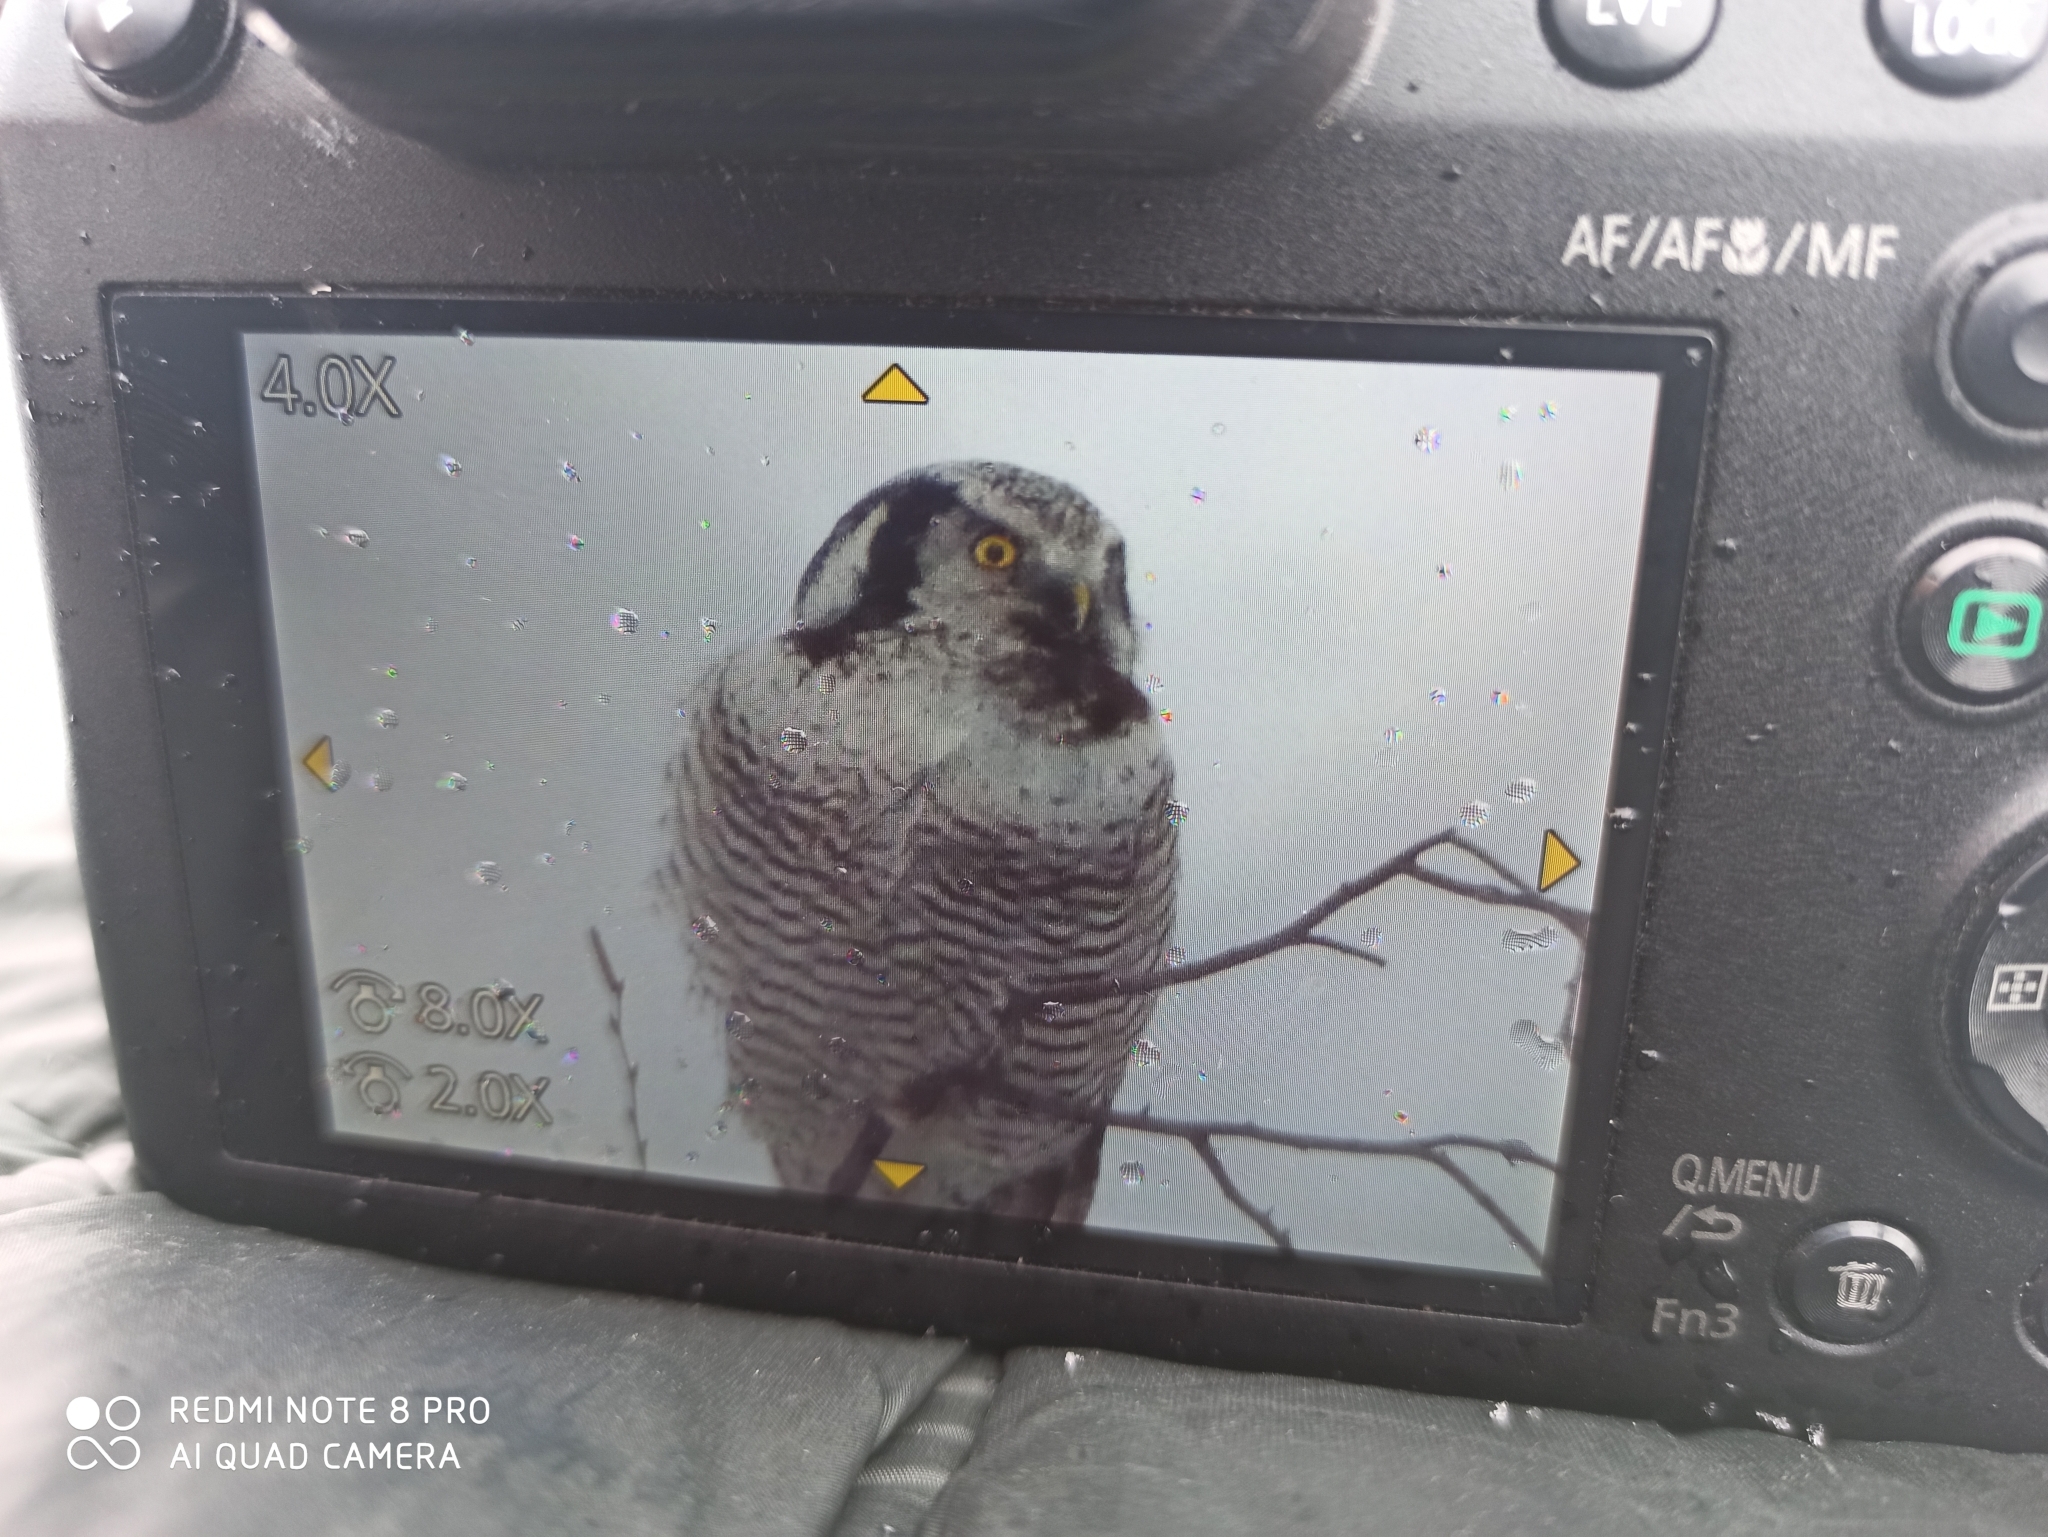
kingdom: Animalia
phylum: Chordata
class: Aves
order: Strigiformes
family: Strigidae
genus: Surnia
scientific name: Surnia ulula
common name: Northern hawk-owl
